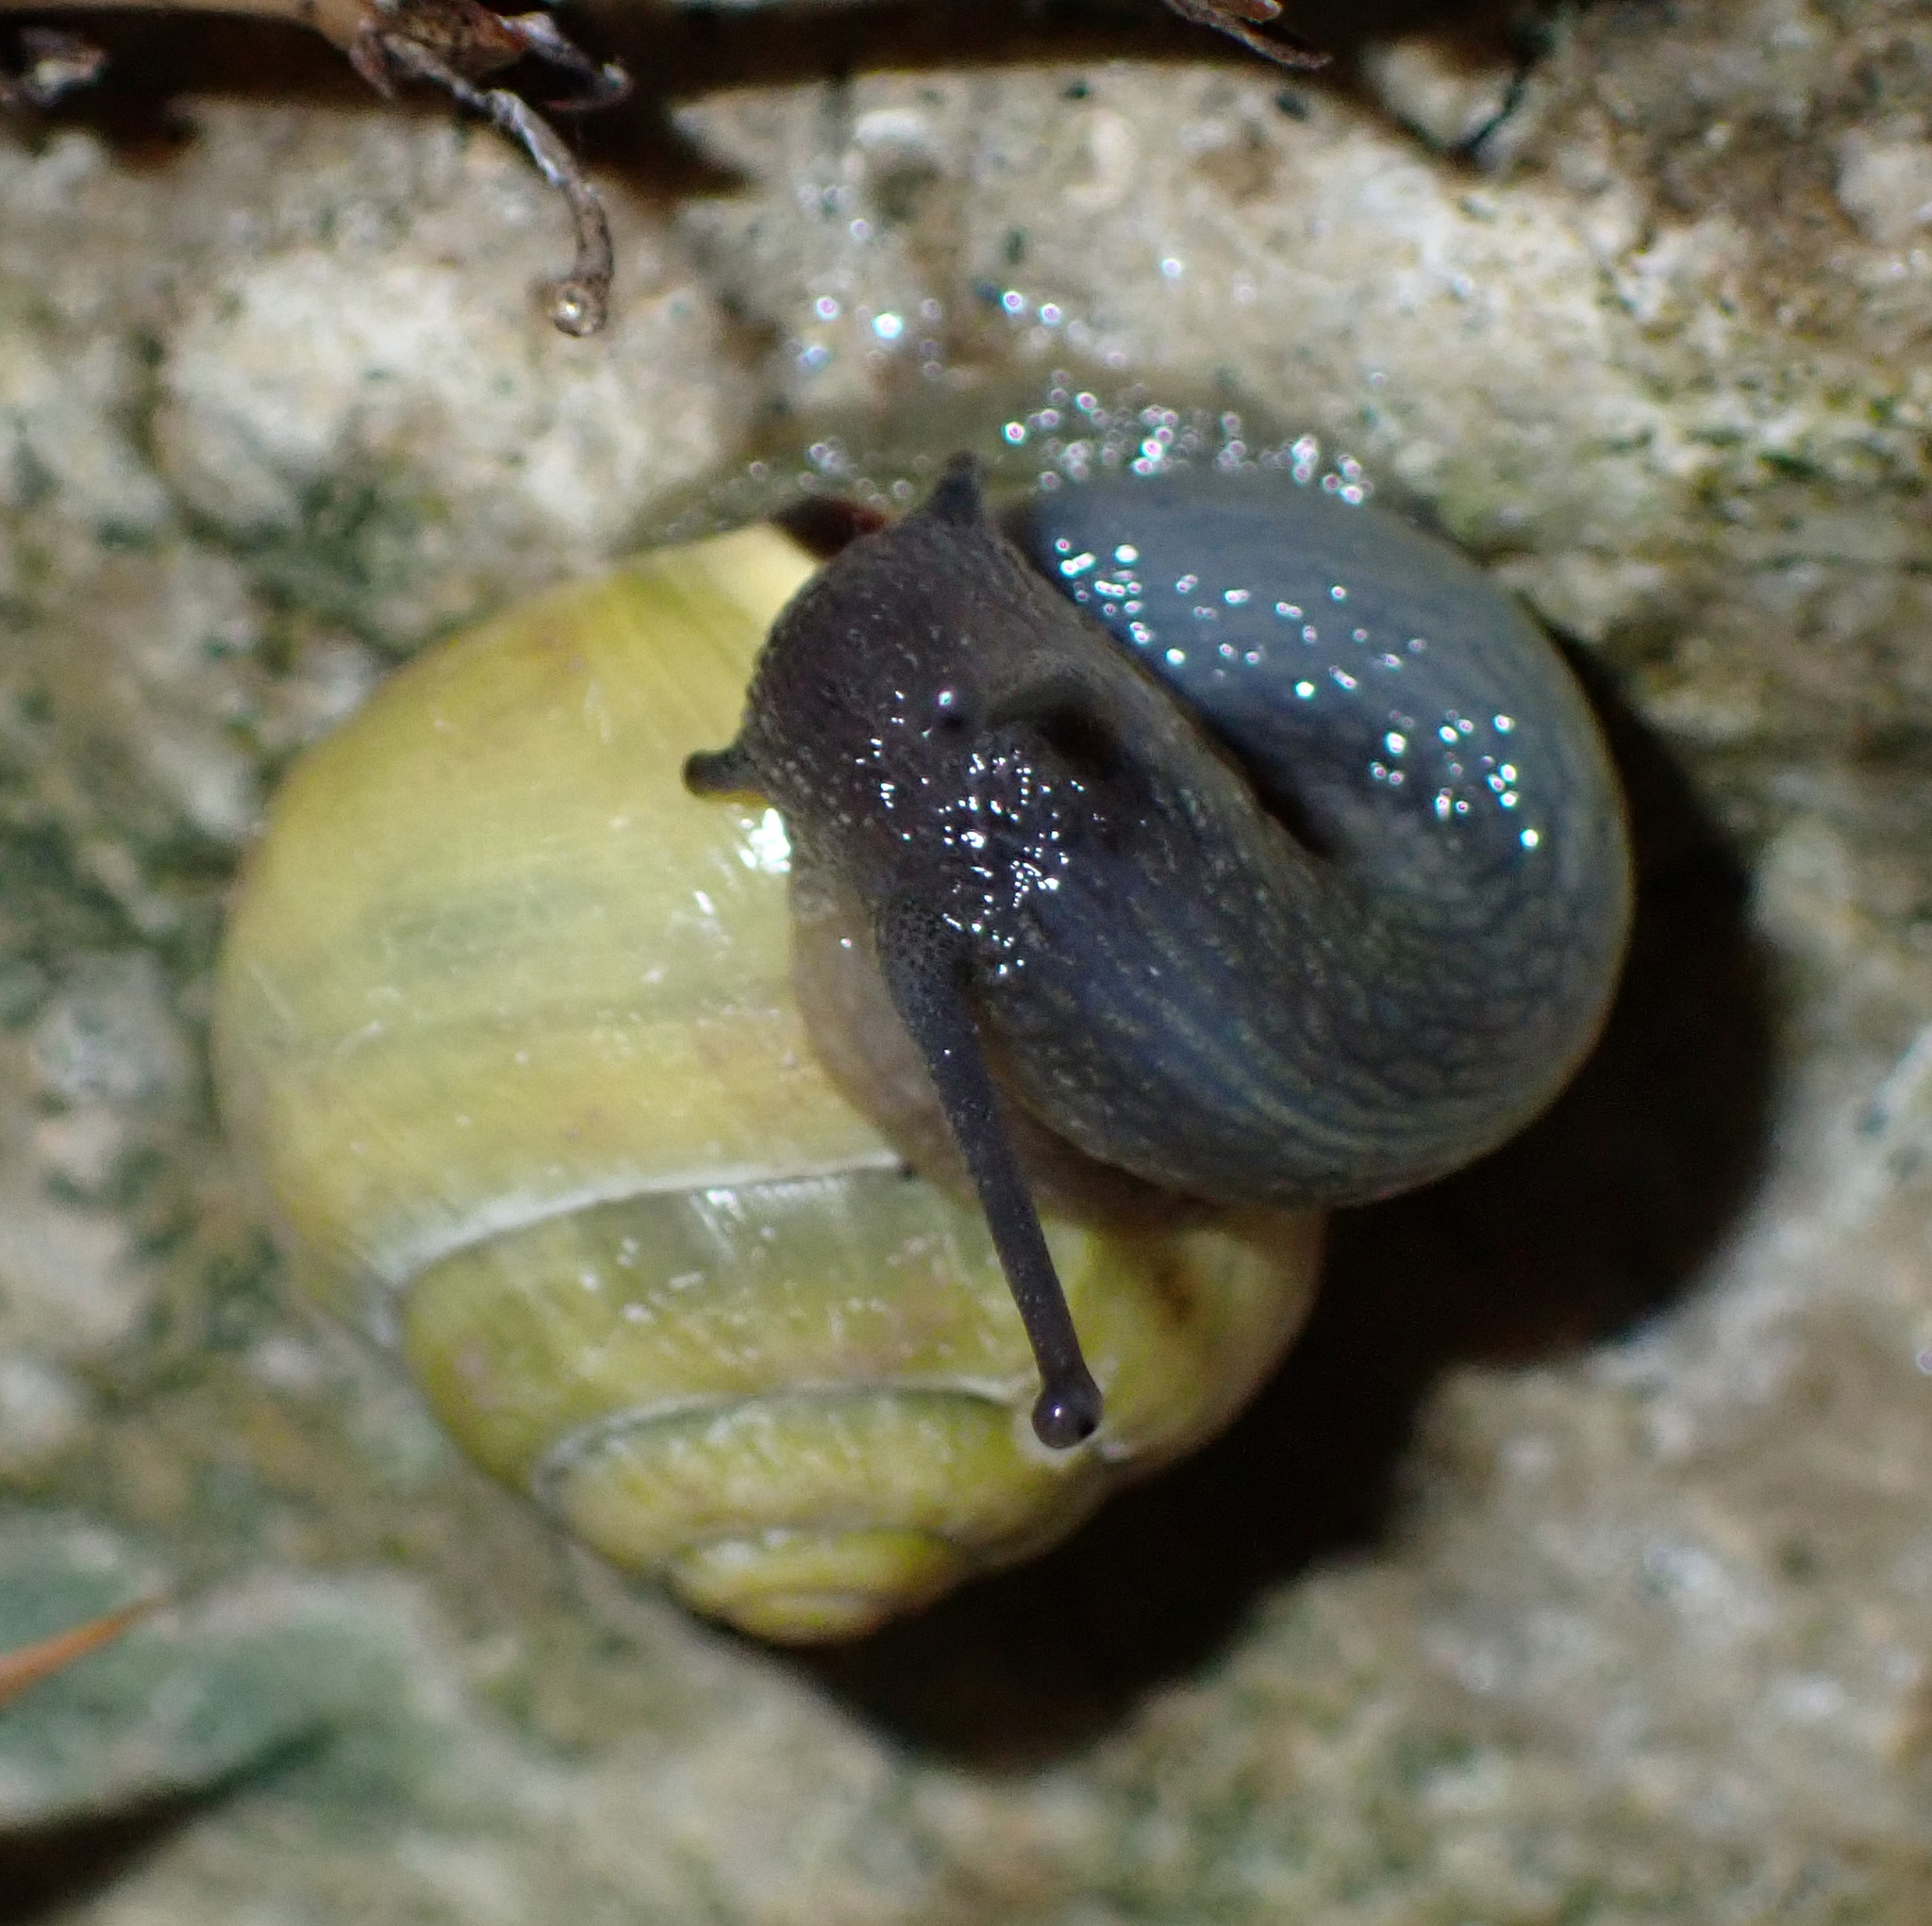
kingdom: Animalia
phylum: Mollusca
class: Gastropoda
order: Stylommatophora
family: Helicidae
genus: Cepaea
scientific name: Cepaea nemoralis
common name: Grovesnail
